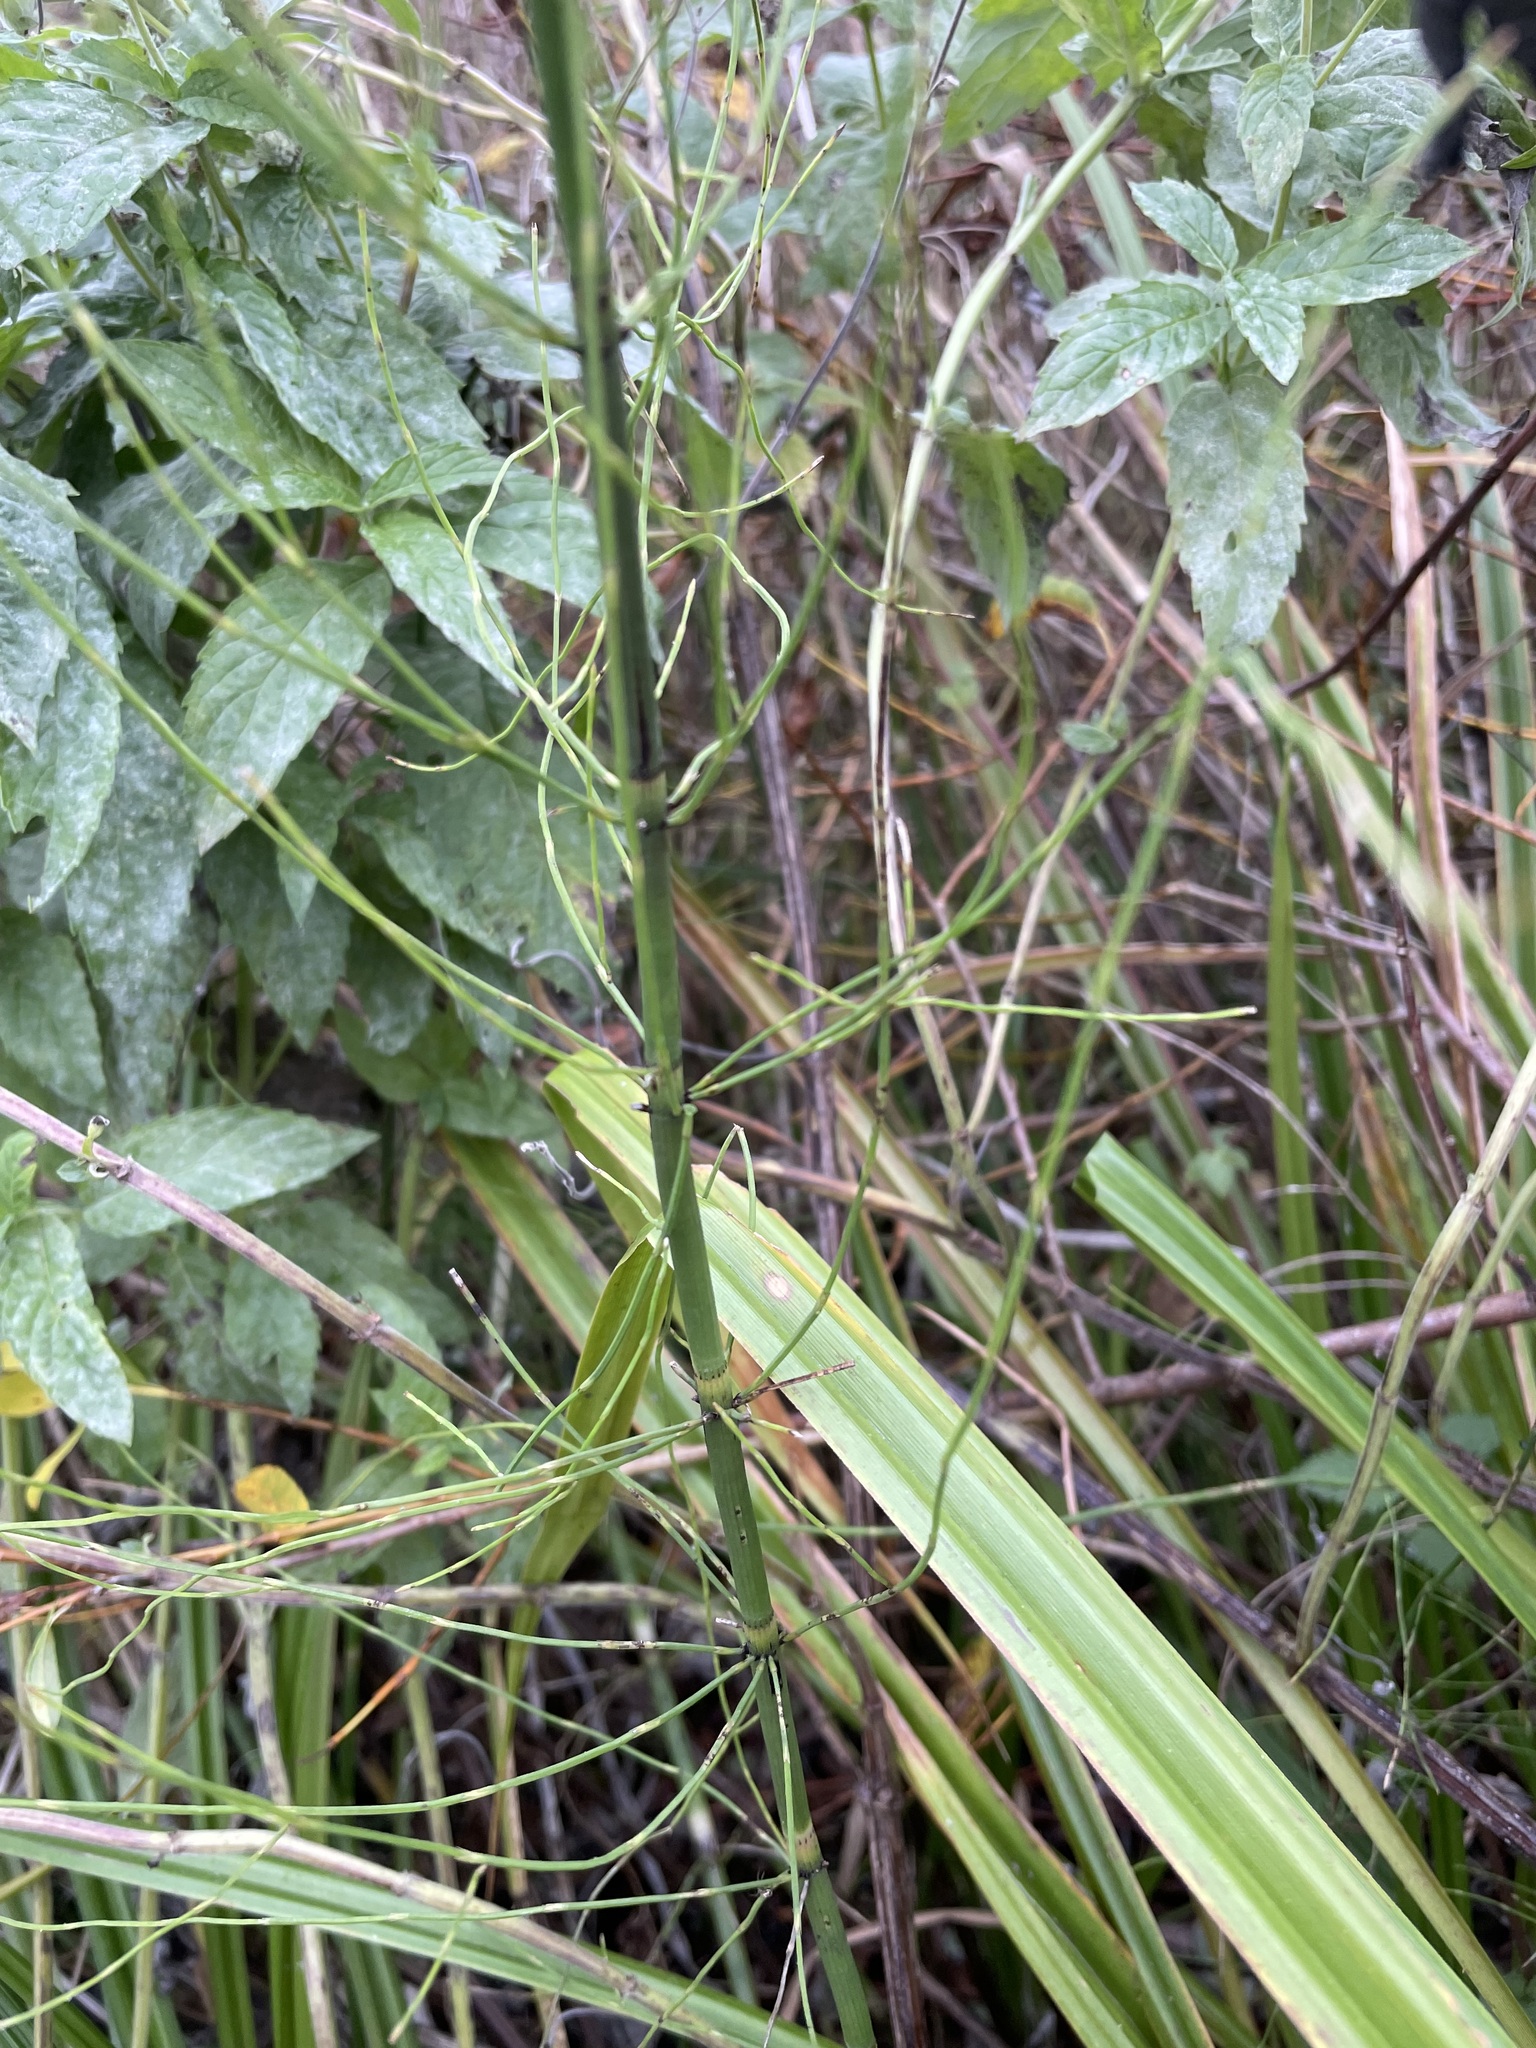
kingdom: Plantae
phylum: Tracheophyta
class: Polypodiopsida
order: Equisetales
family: Equisetaceae
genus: Equisetum
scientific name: Equisetum fluviatile
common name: Water horsetail
